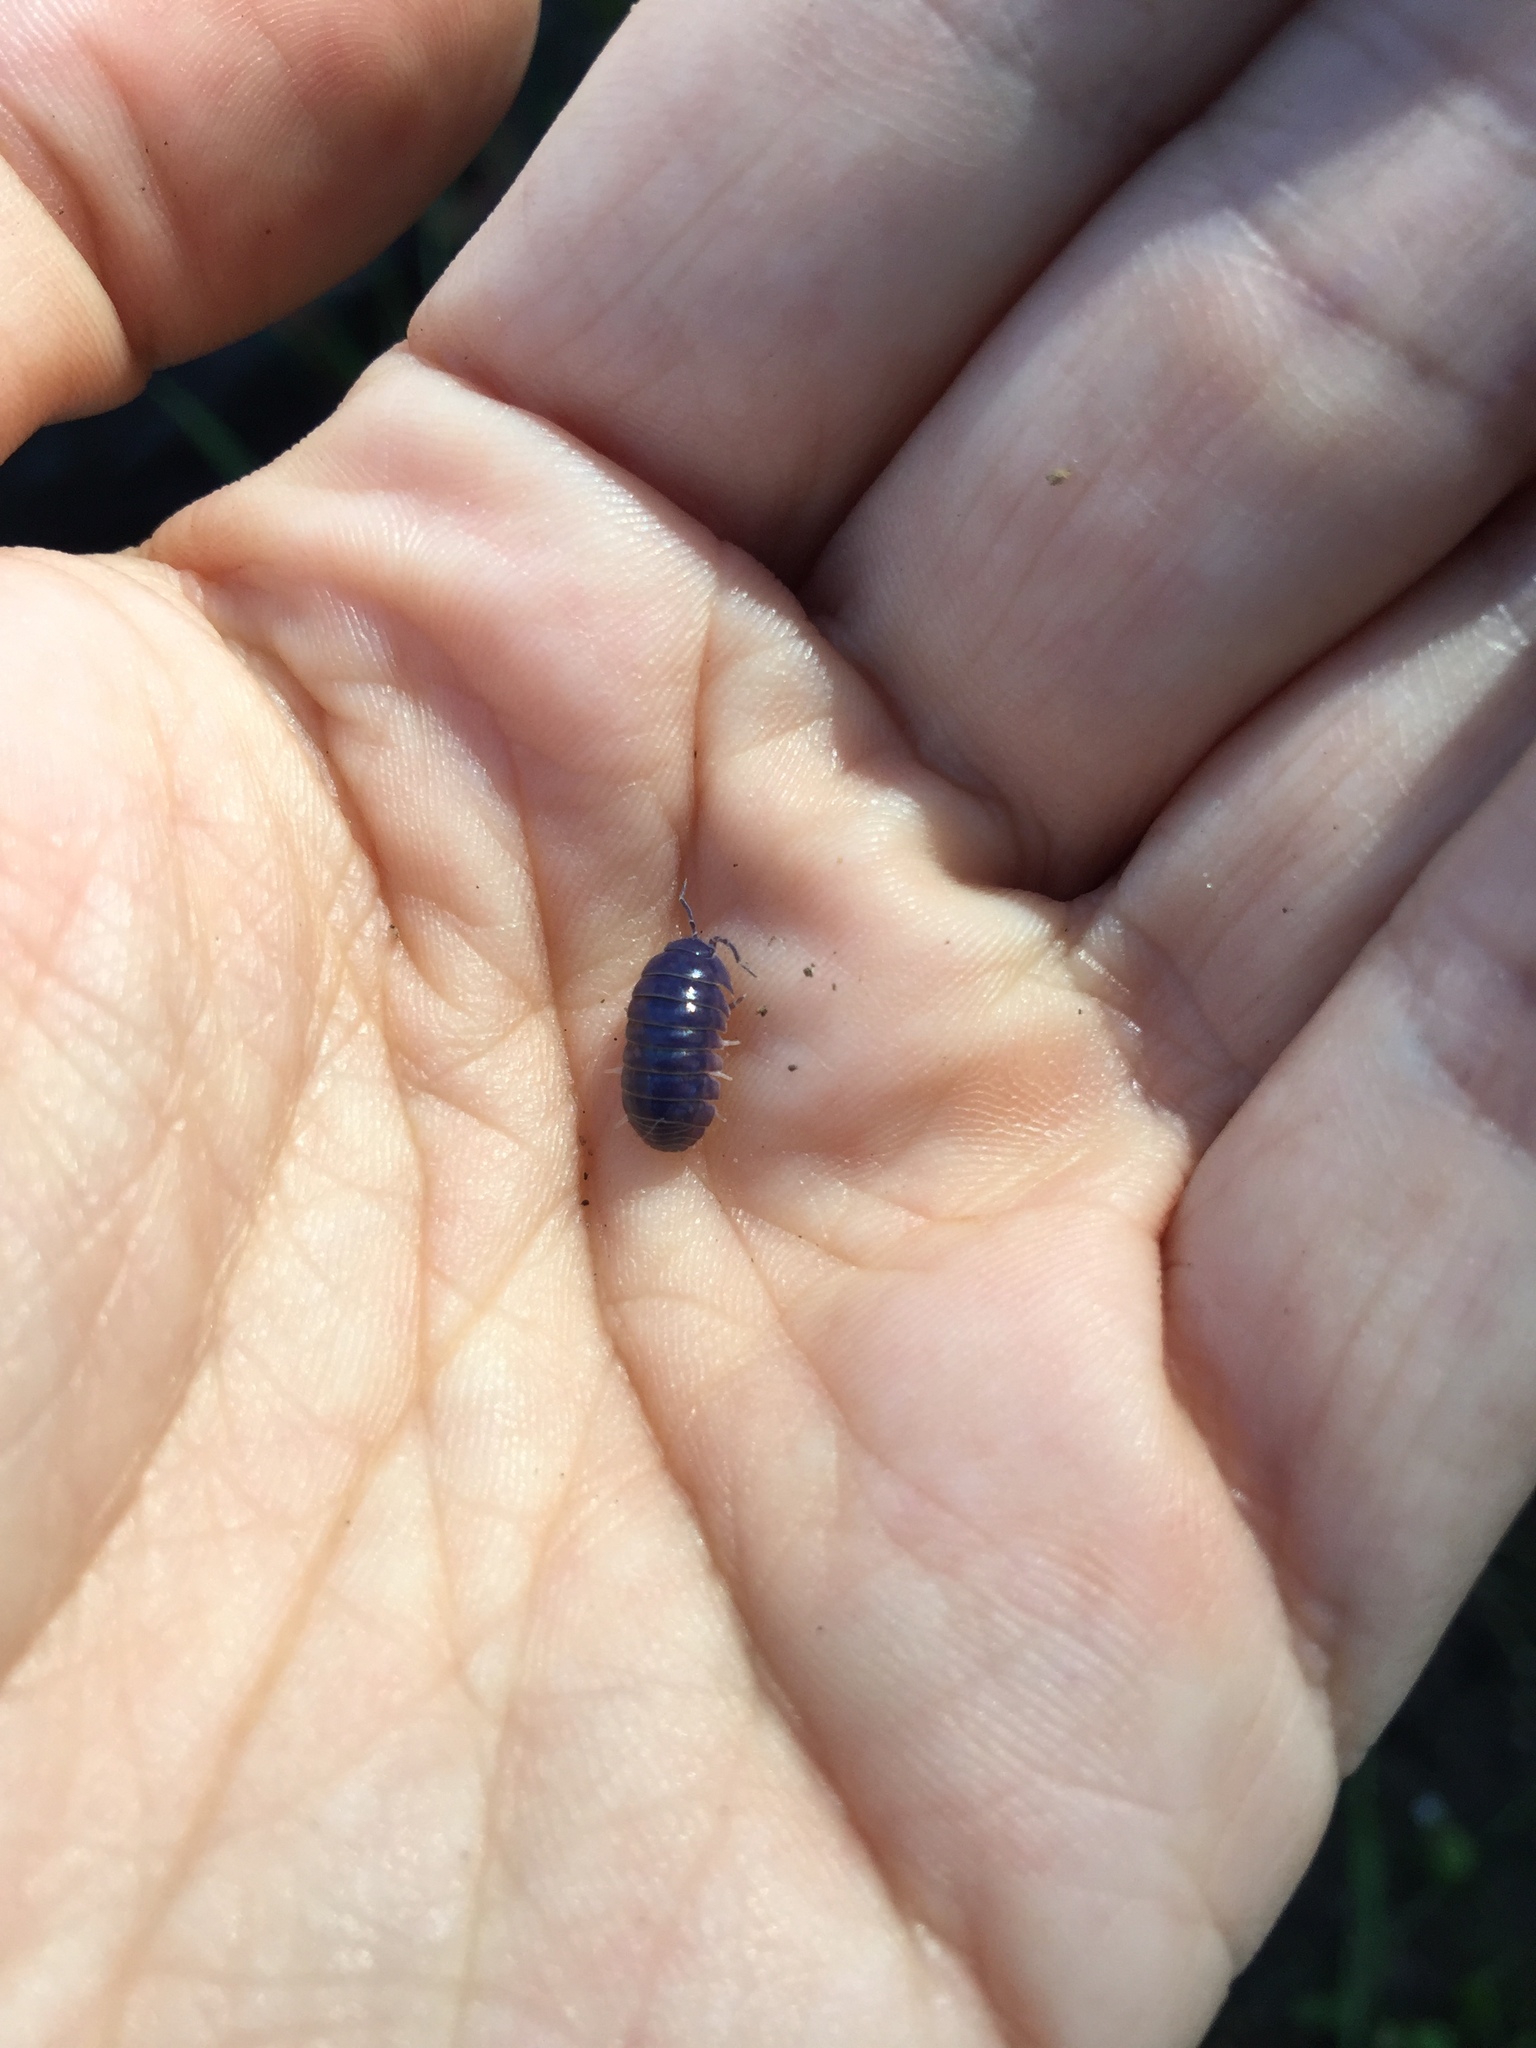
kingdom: Animalia
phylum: Arthropoda
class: Malacostraca
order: Isopoda
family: Armadillidiidae
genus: Armadillidium
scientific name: Armadillidium vulgare
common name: Common pill woodlouse
